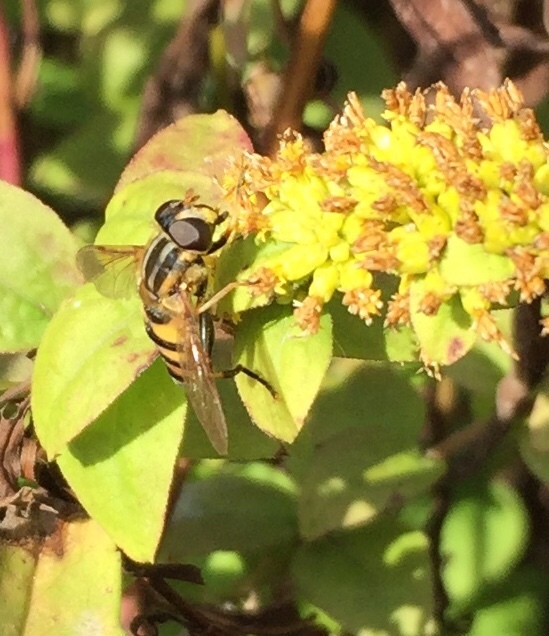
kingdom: Animalia
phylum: Arthropoda
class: Insecta
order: Diptera
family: Syrphidae
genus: Helophilus
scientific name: Helophilus fasciatus
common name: Narrow-headed marsh fly
